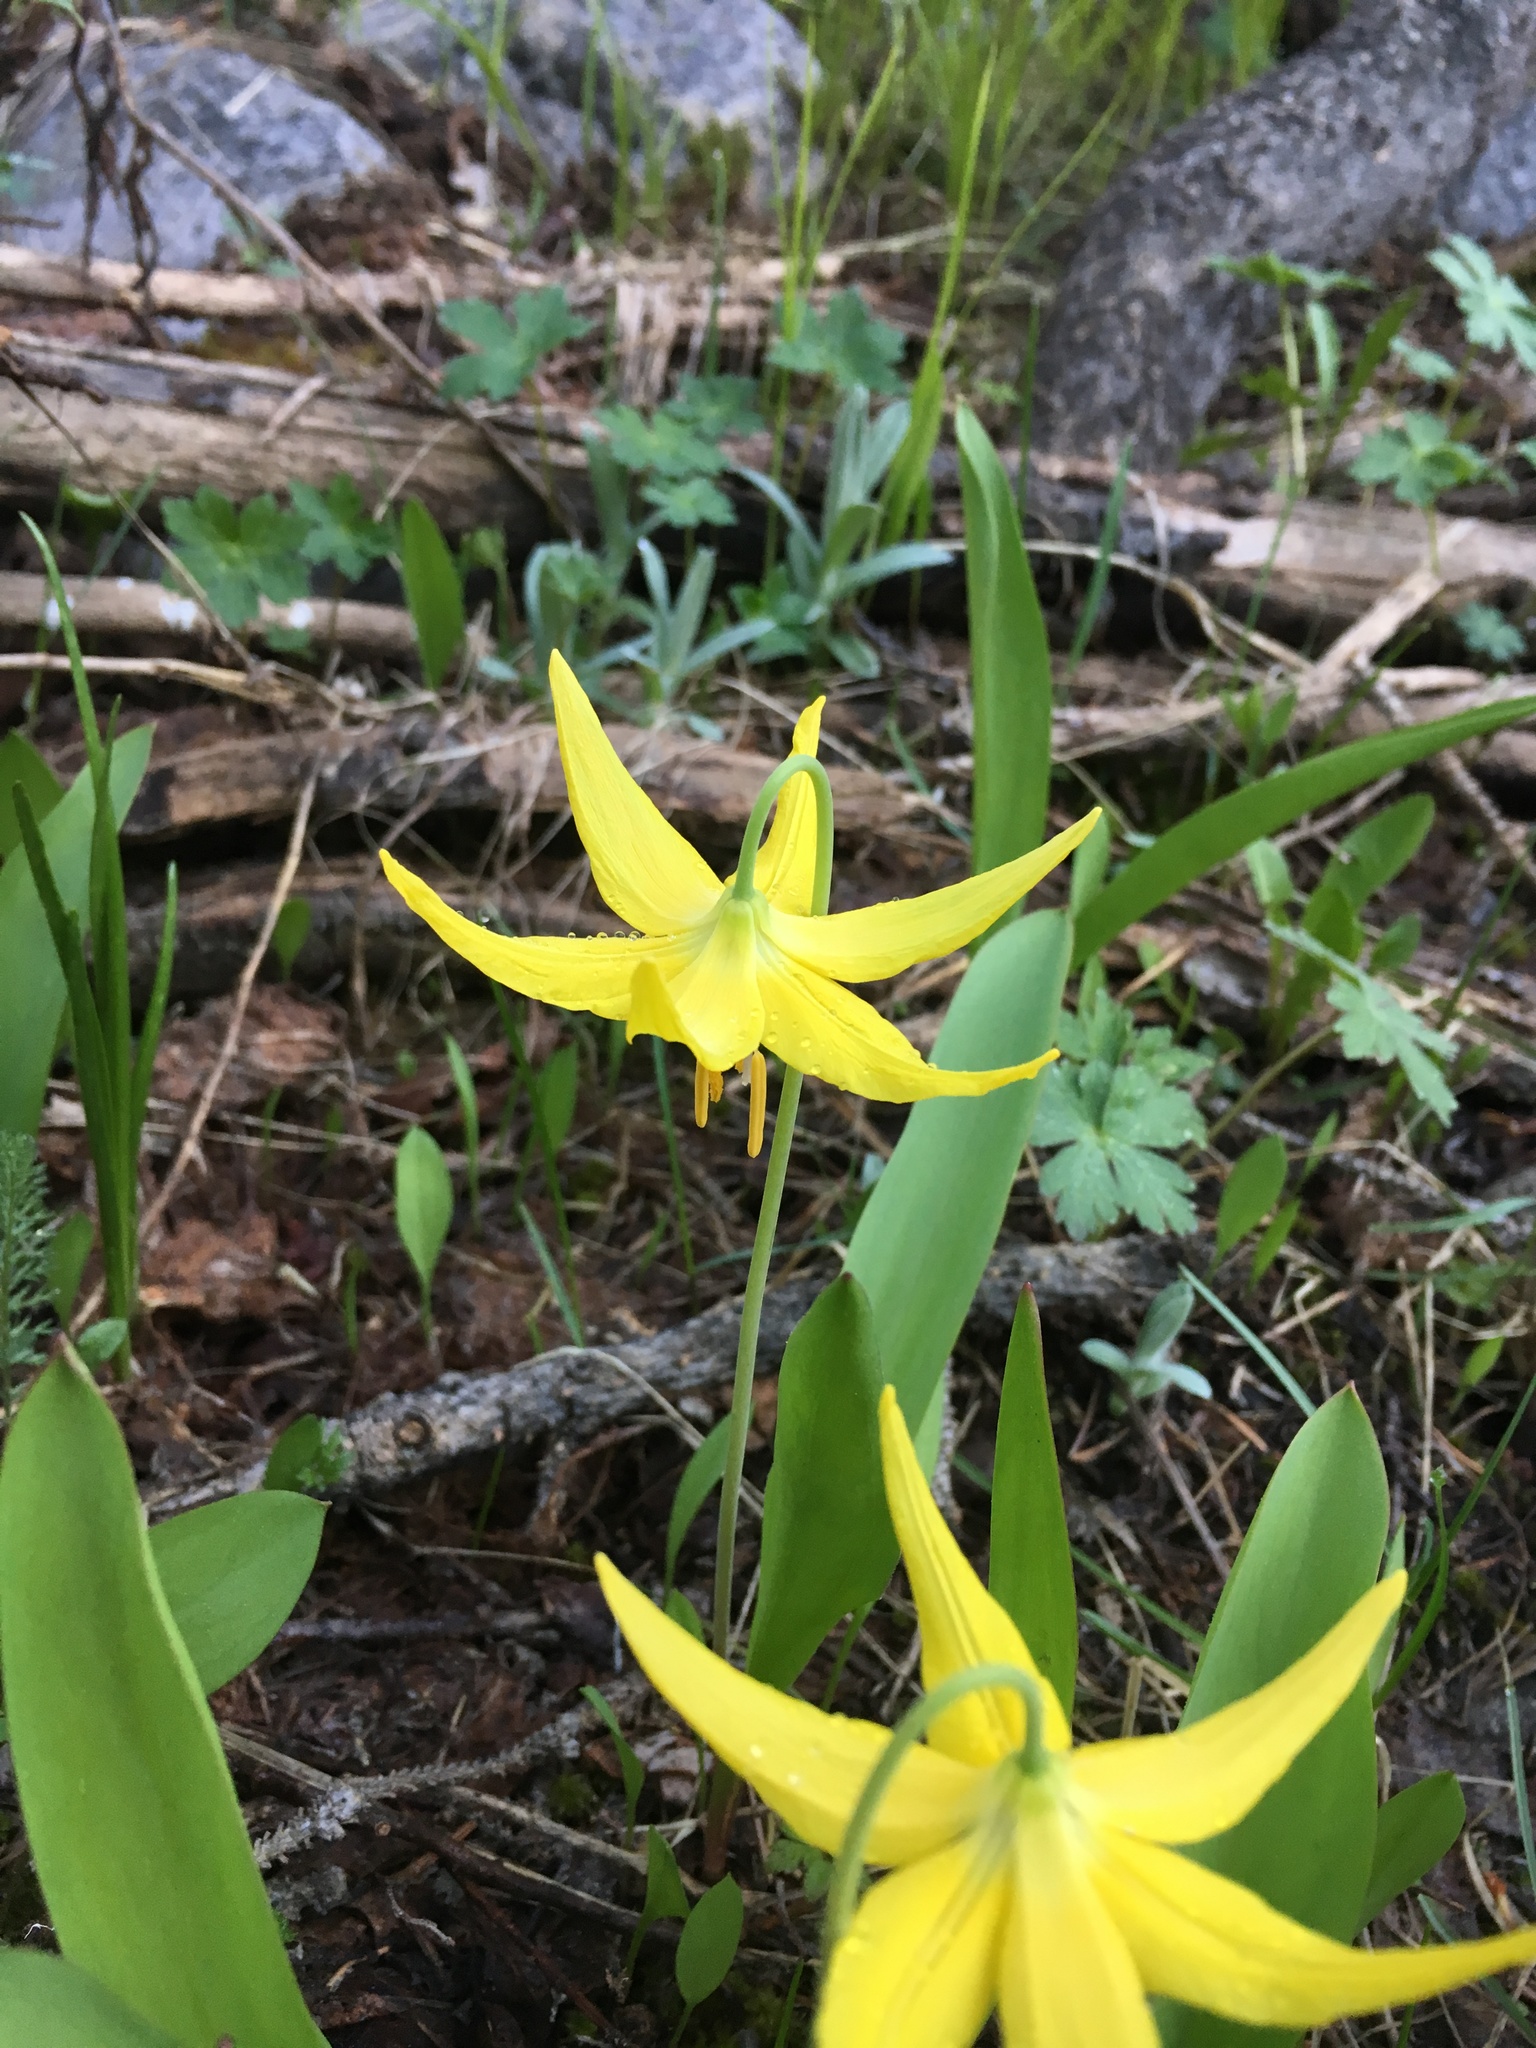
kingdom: Plantae
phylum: Tracheophyta
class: Liliopsida
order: Liliales
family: Liliaceae
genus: Erythronium
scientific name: Erythronium grandiflorum
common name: Avalanche-lily
